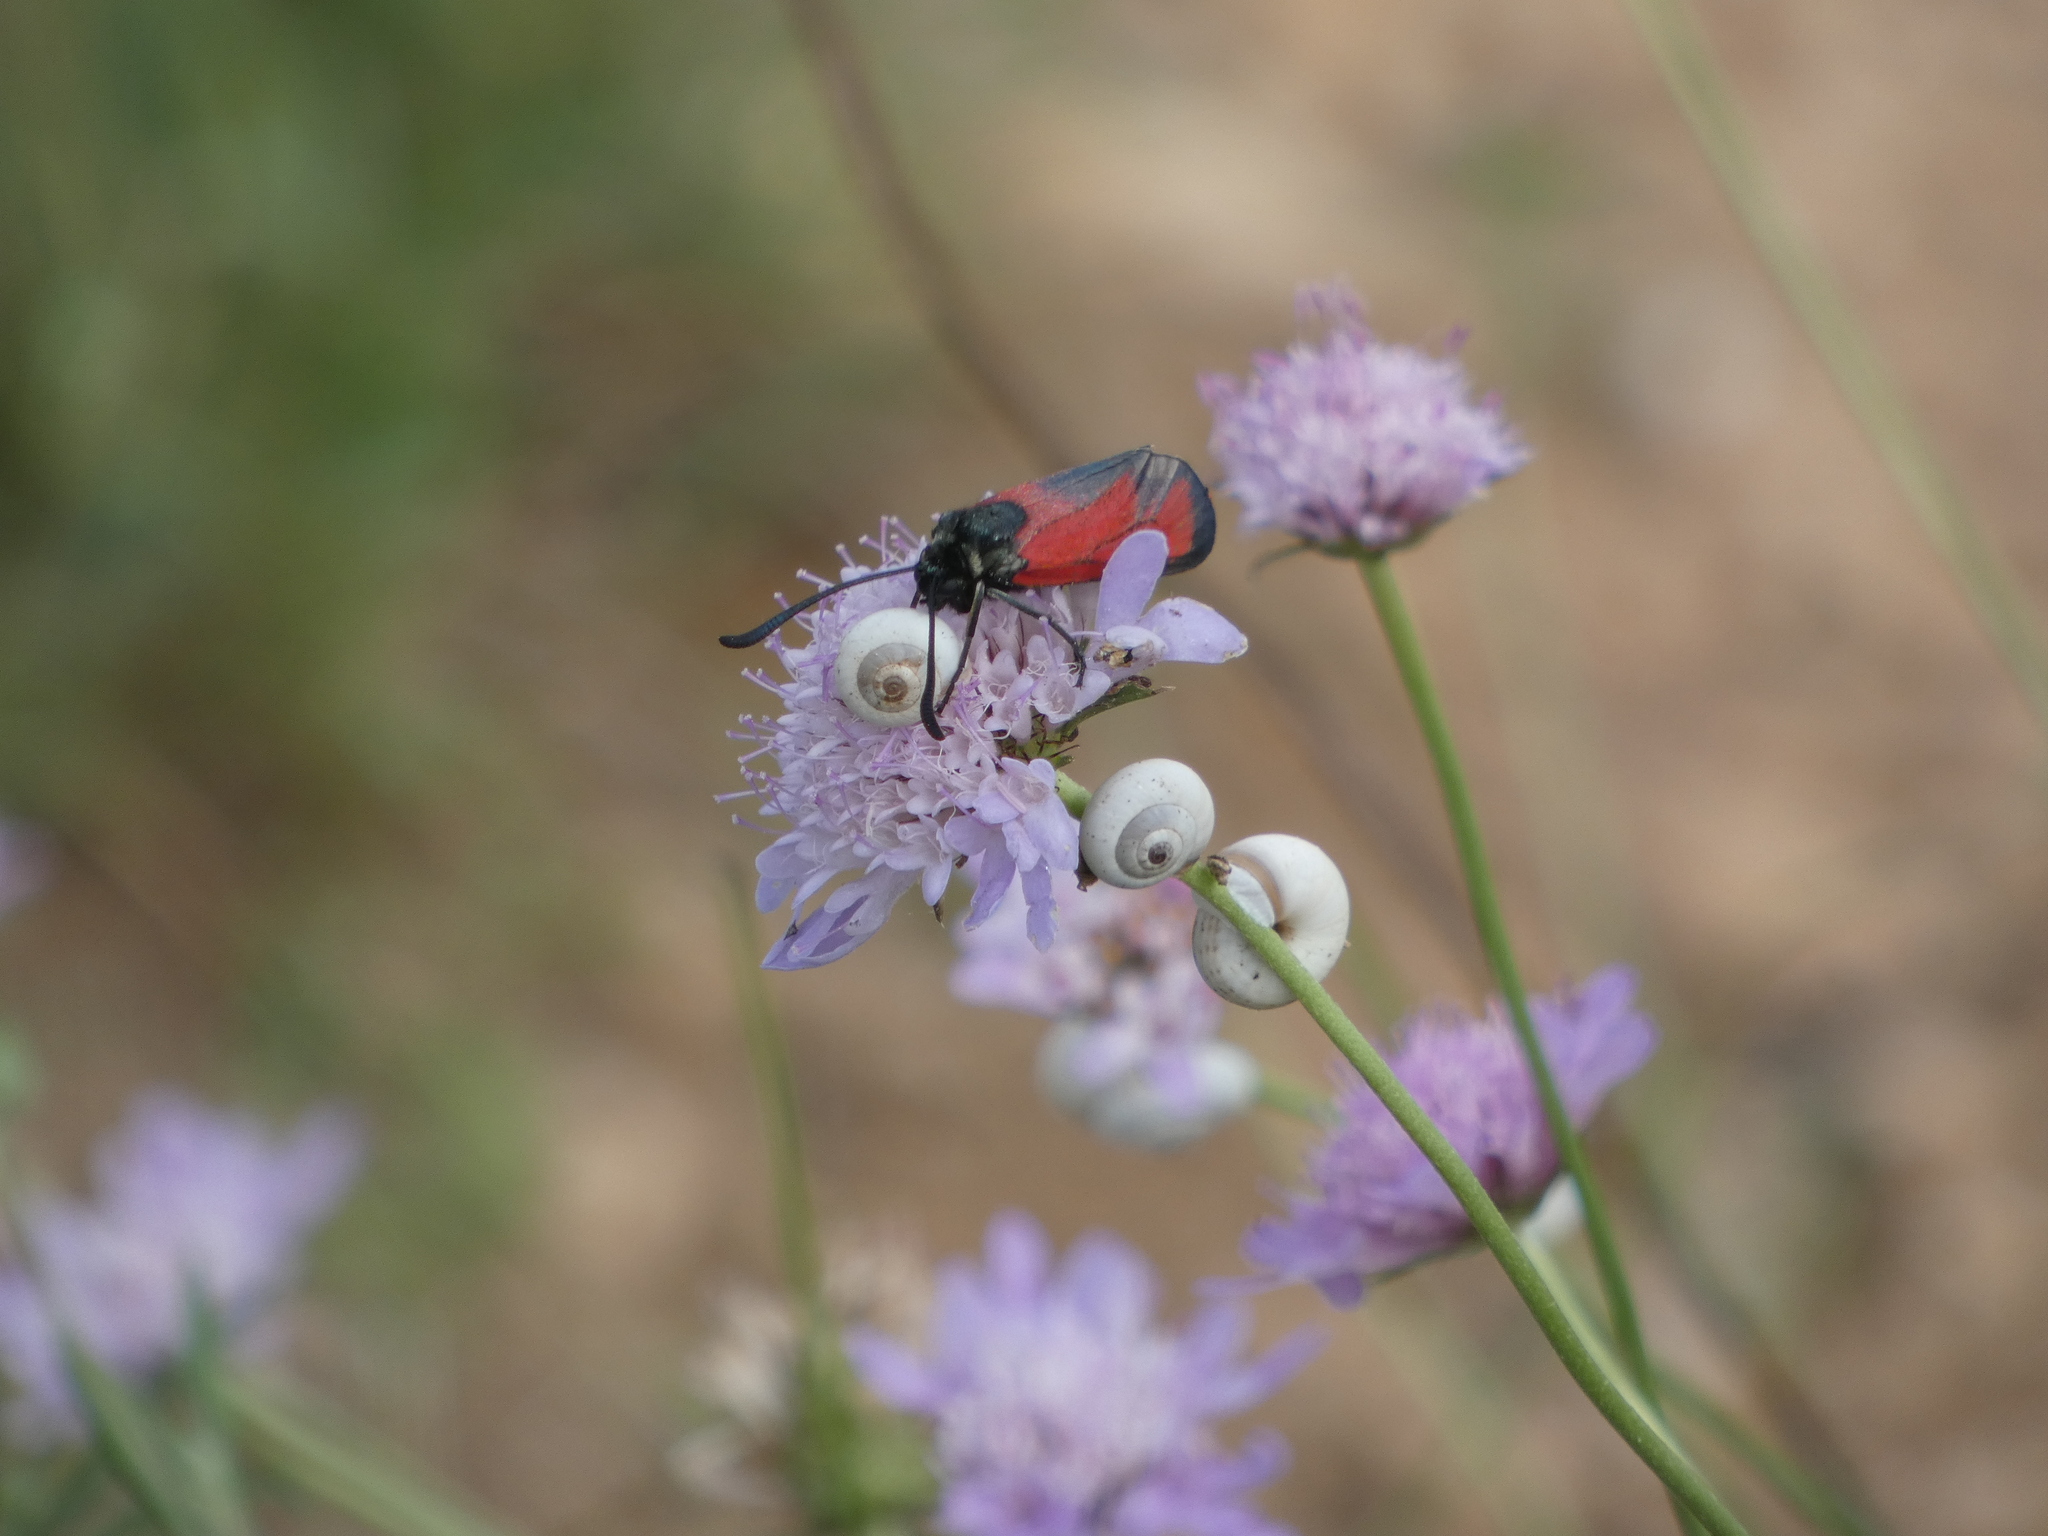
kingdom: Animalia
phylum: Arthropoda
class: Insecta
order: Lepidoptera
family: Zygaenidae
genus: Zygaena
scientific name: Zygaena erythrus
